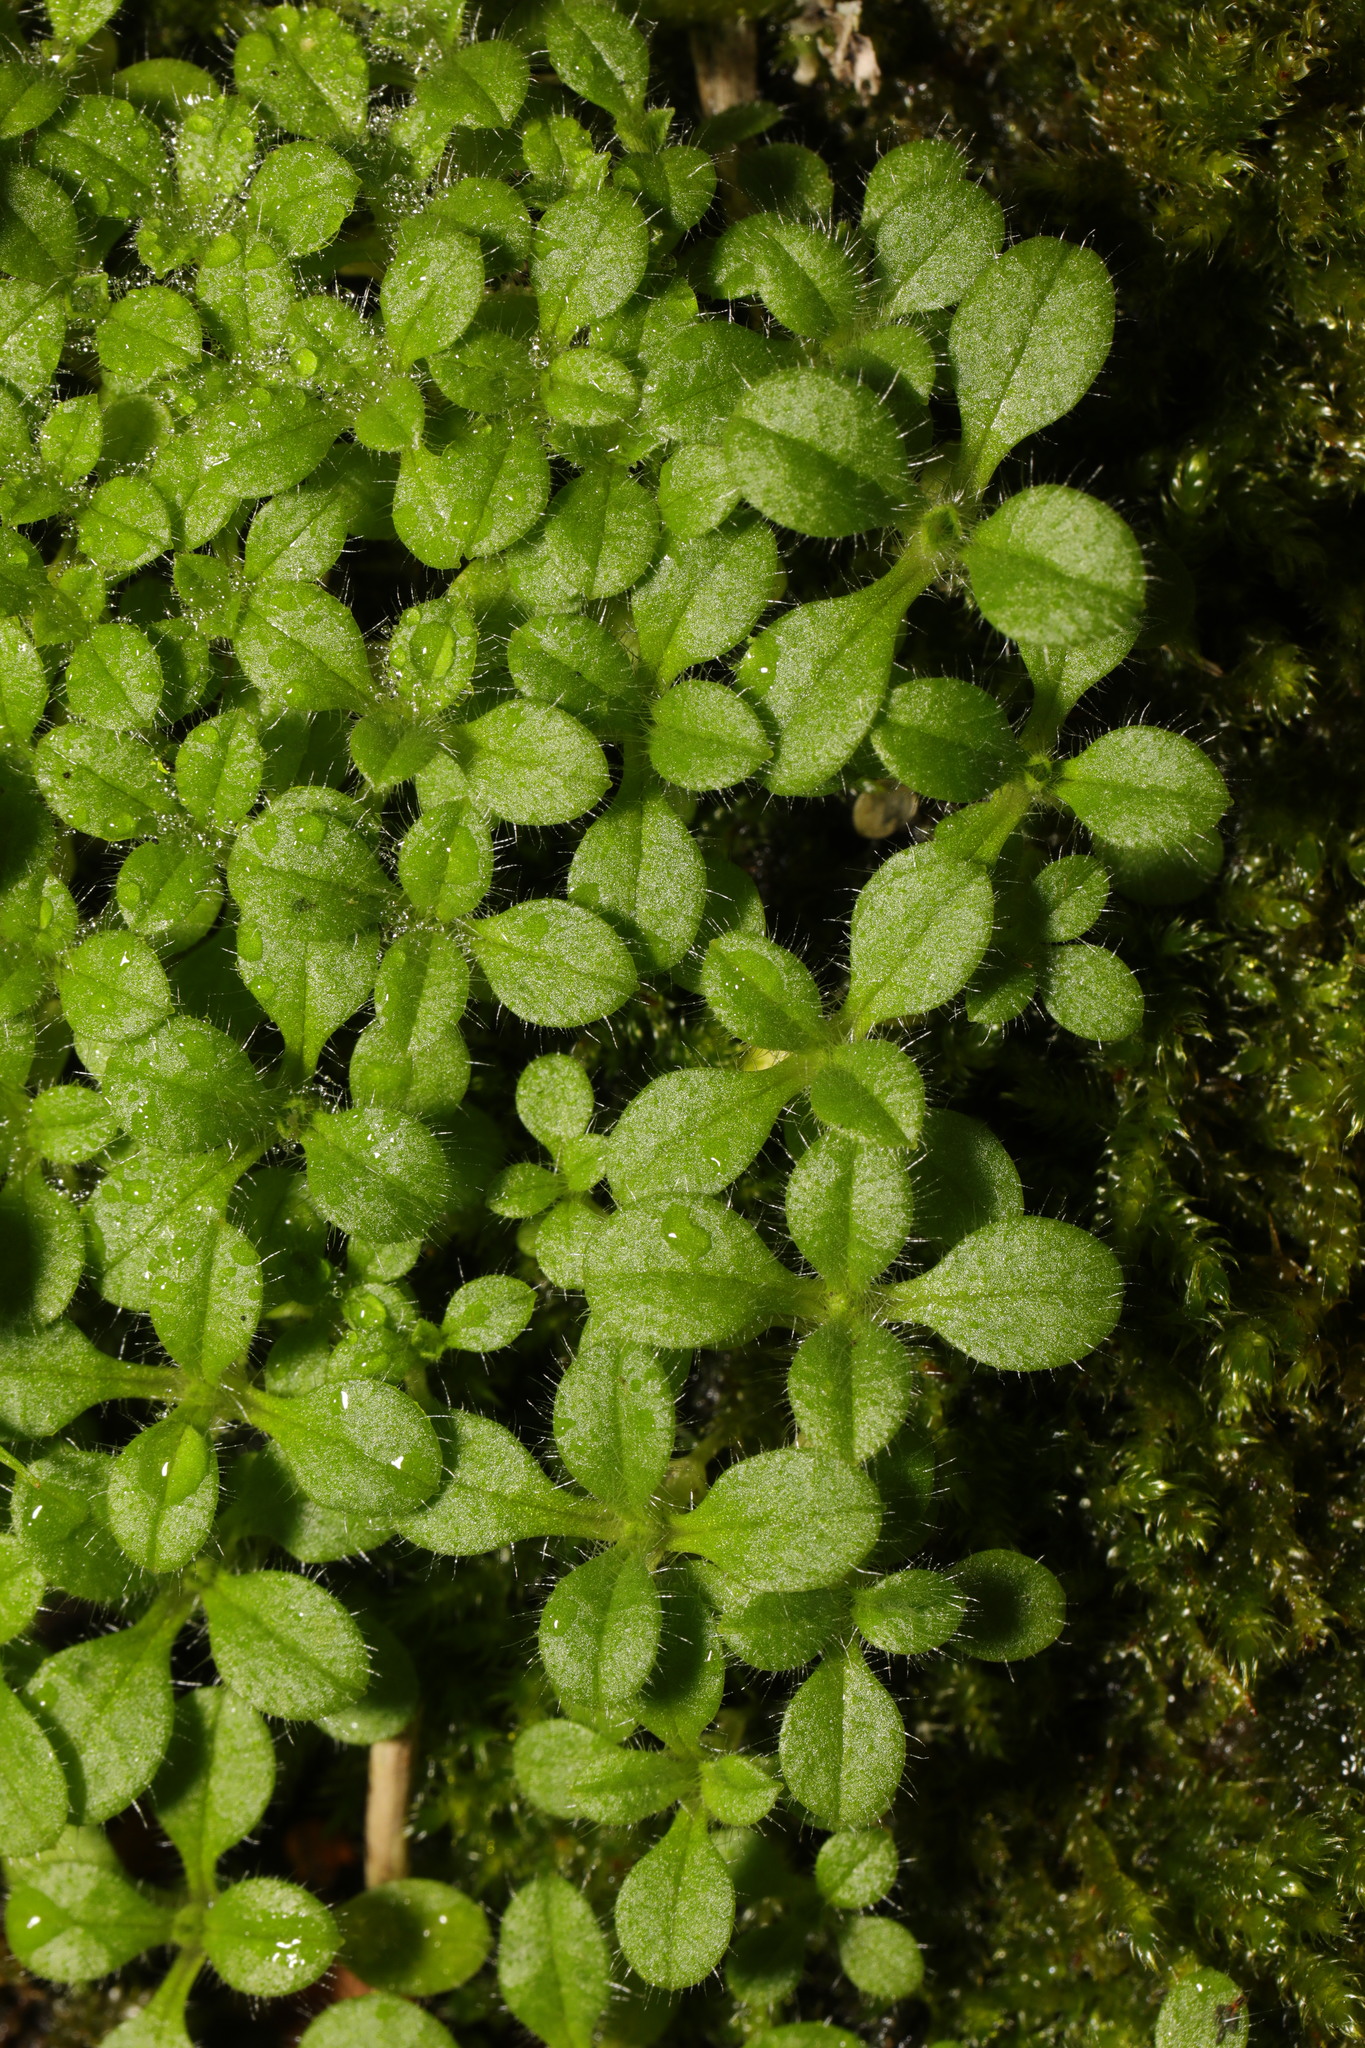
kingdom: Plantae
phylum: Tracheophyta
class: Magnoliopsida
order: Caryophyllales
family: Caryophyllaceae
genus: Cerastium
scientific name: Cerastium glomeratum
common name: Sticky chickweed
